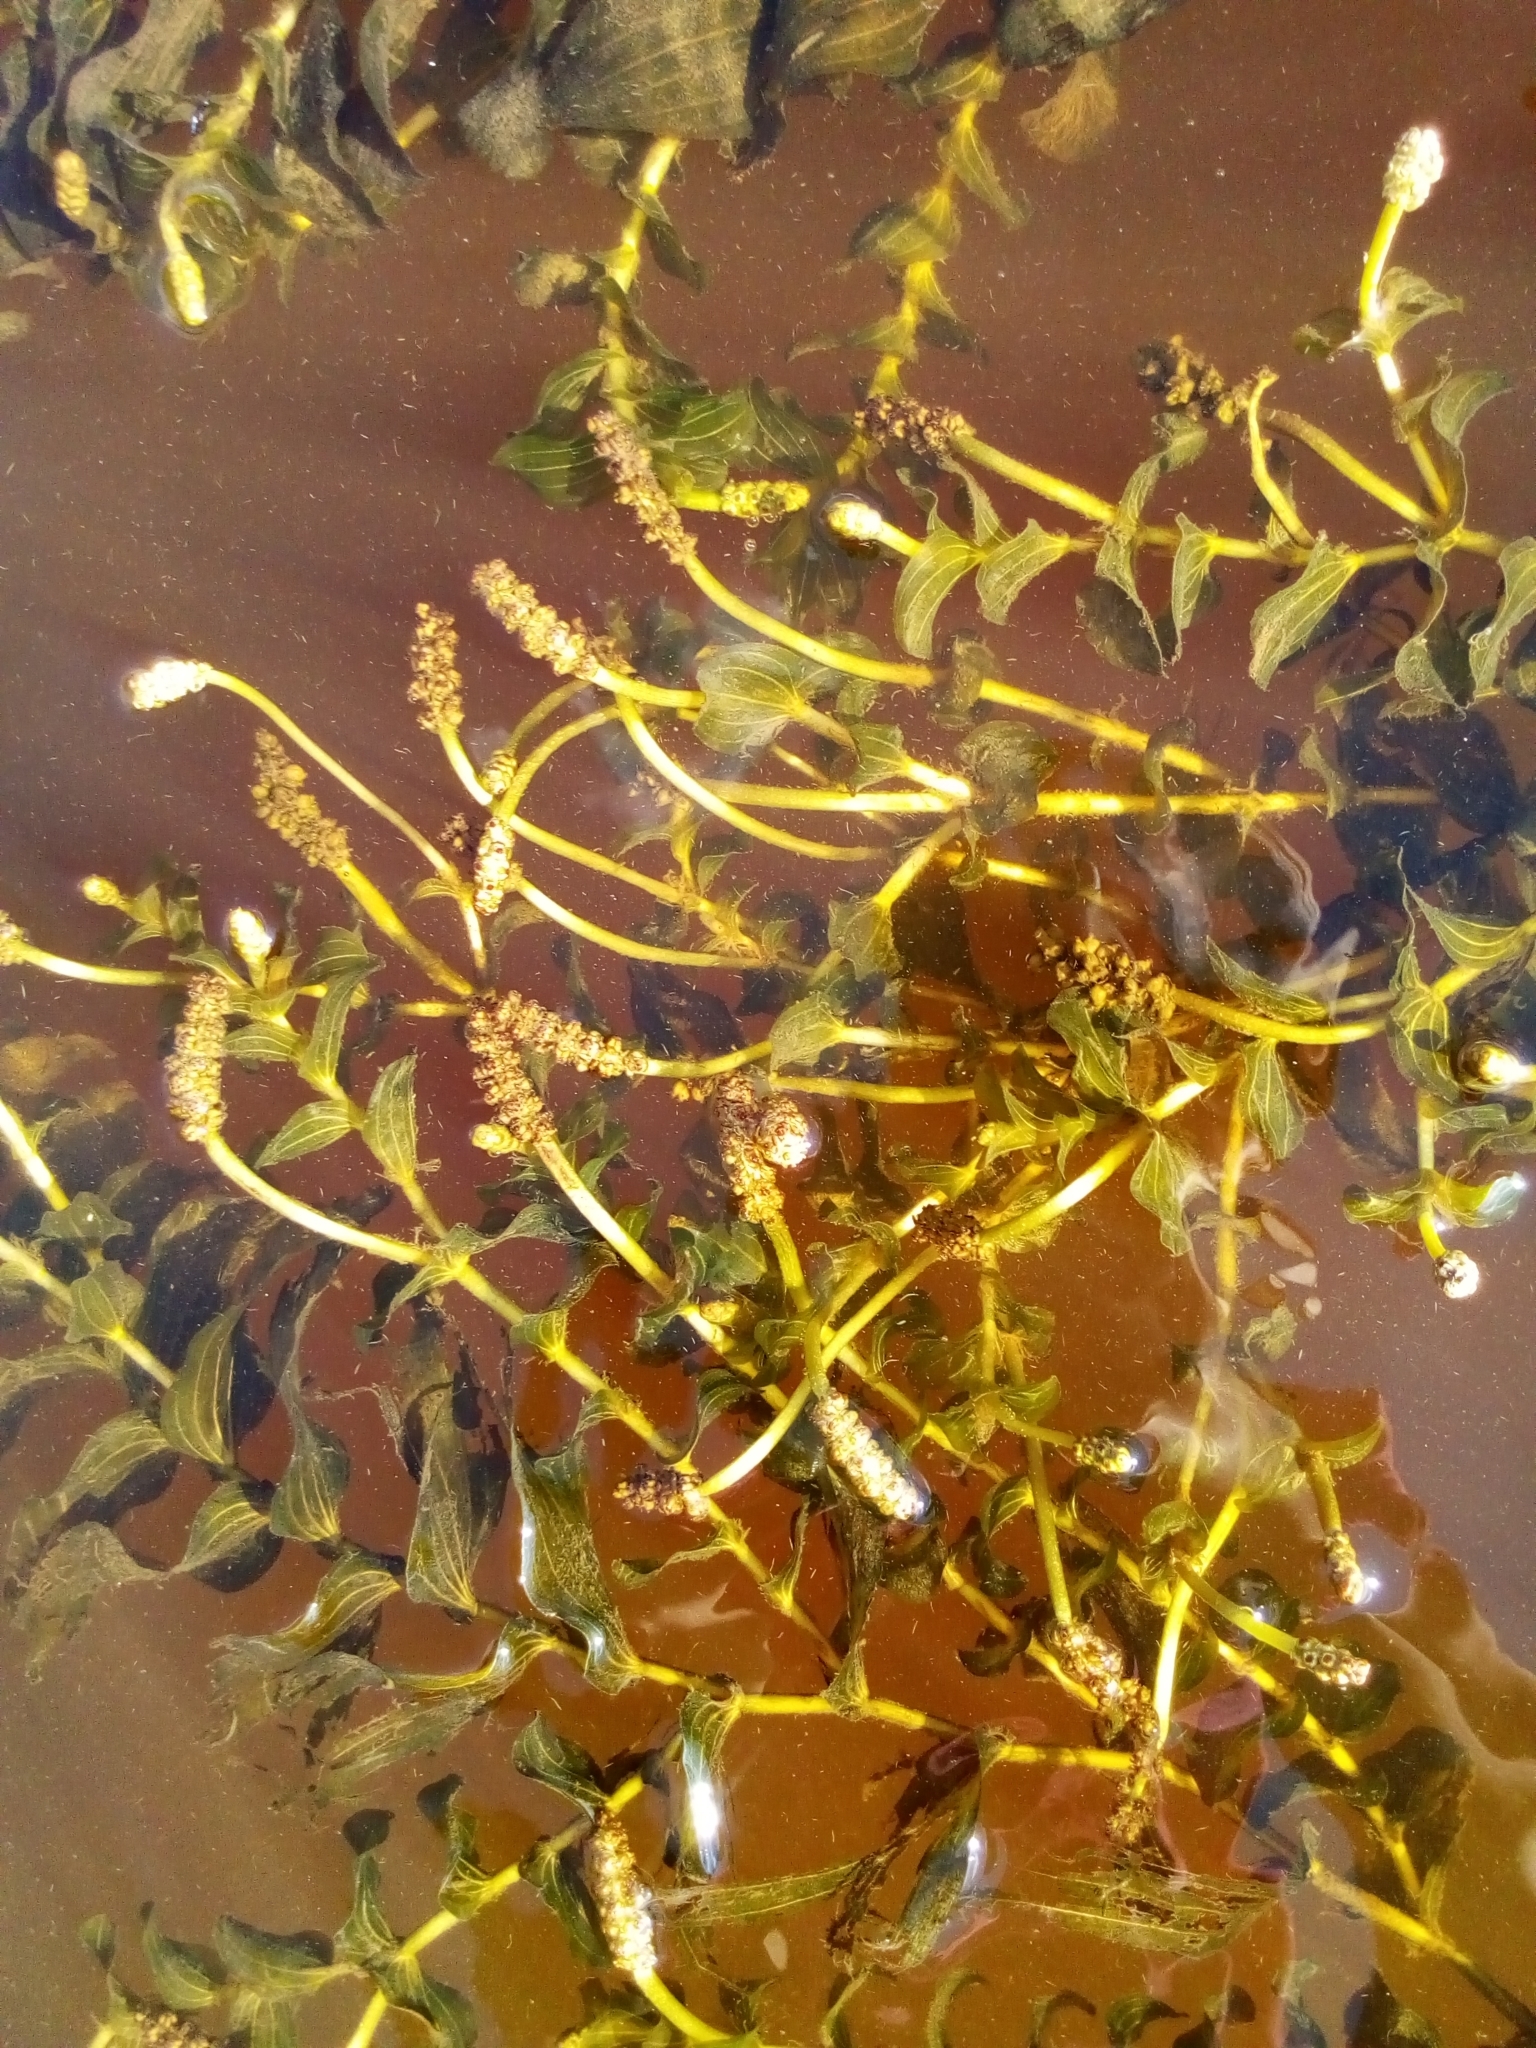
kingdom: Plantae
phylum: Tracheophyta
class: Liliopsida
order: Alismatales
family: Potamogetonaceae
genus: Potamogeton
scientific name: Potamogeton perfoliatus
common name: Perfoliate pondweed
